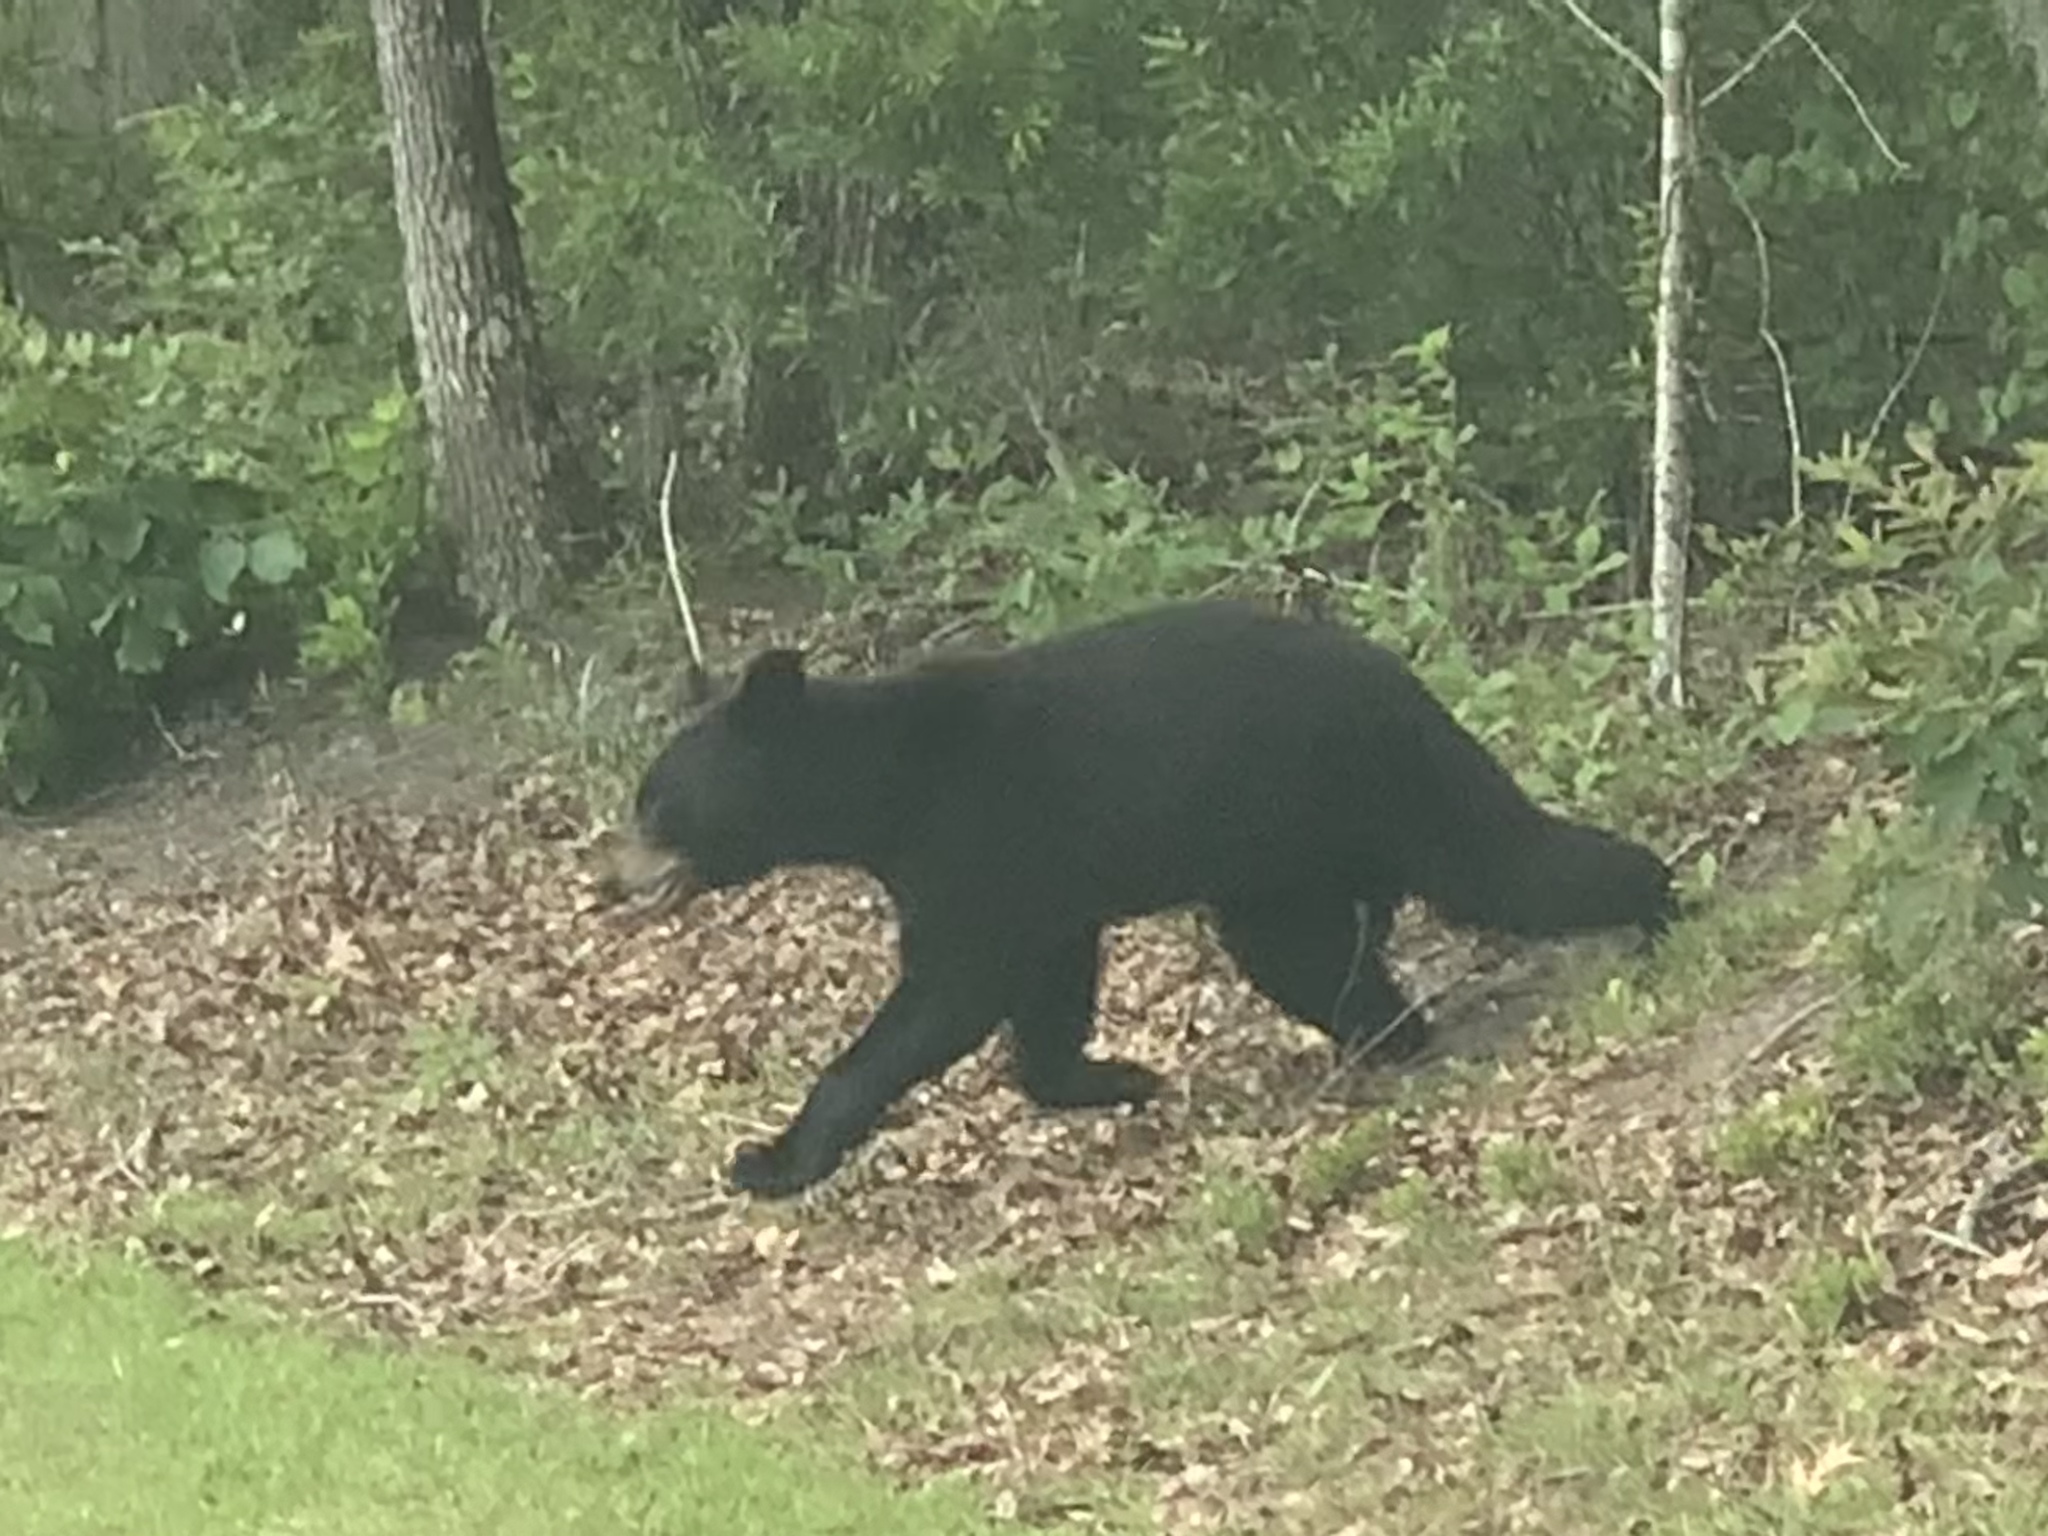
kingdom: Animalia
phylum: Chordata
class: Mammalia
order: Carnivora
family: Ursidae
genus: Ursus
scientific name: Ursus americanus
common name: American black bear
